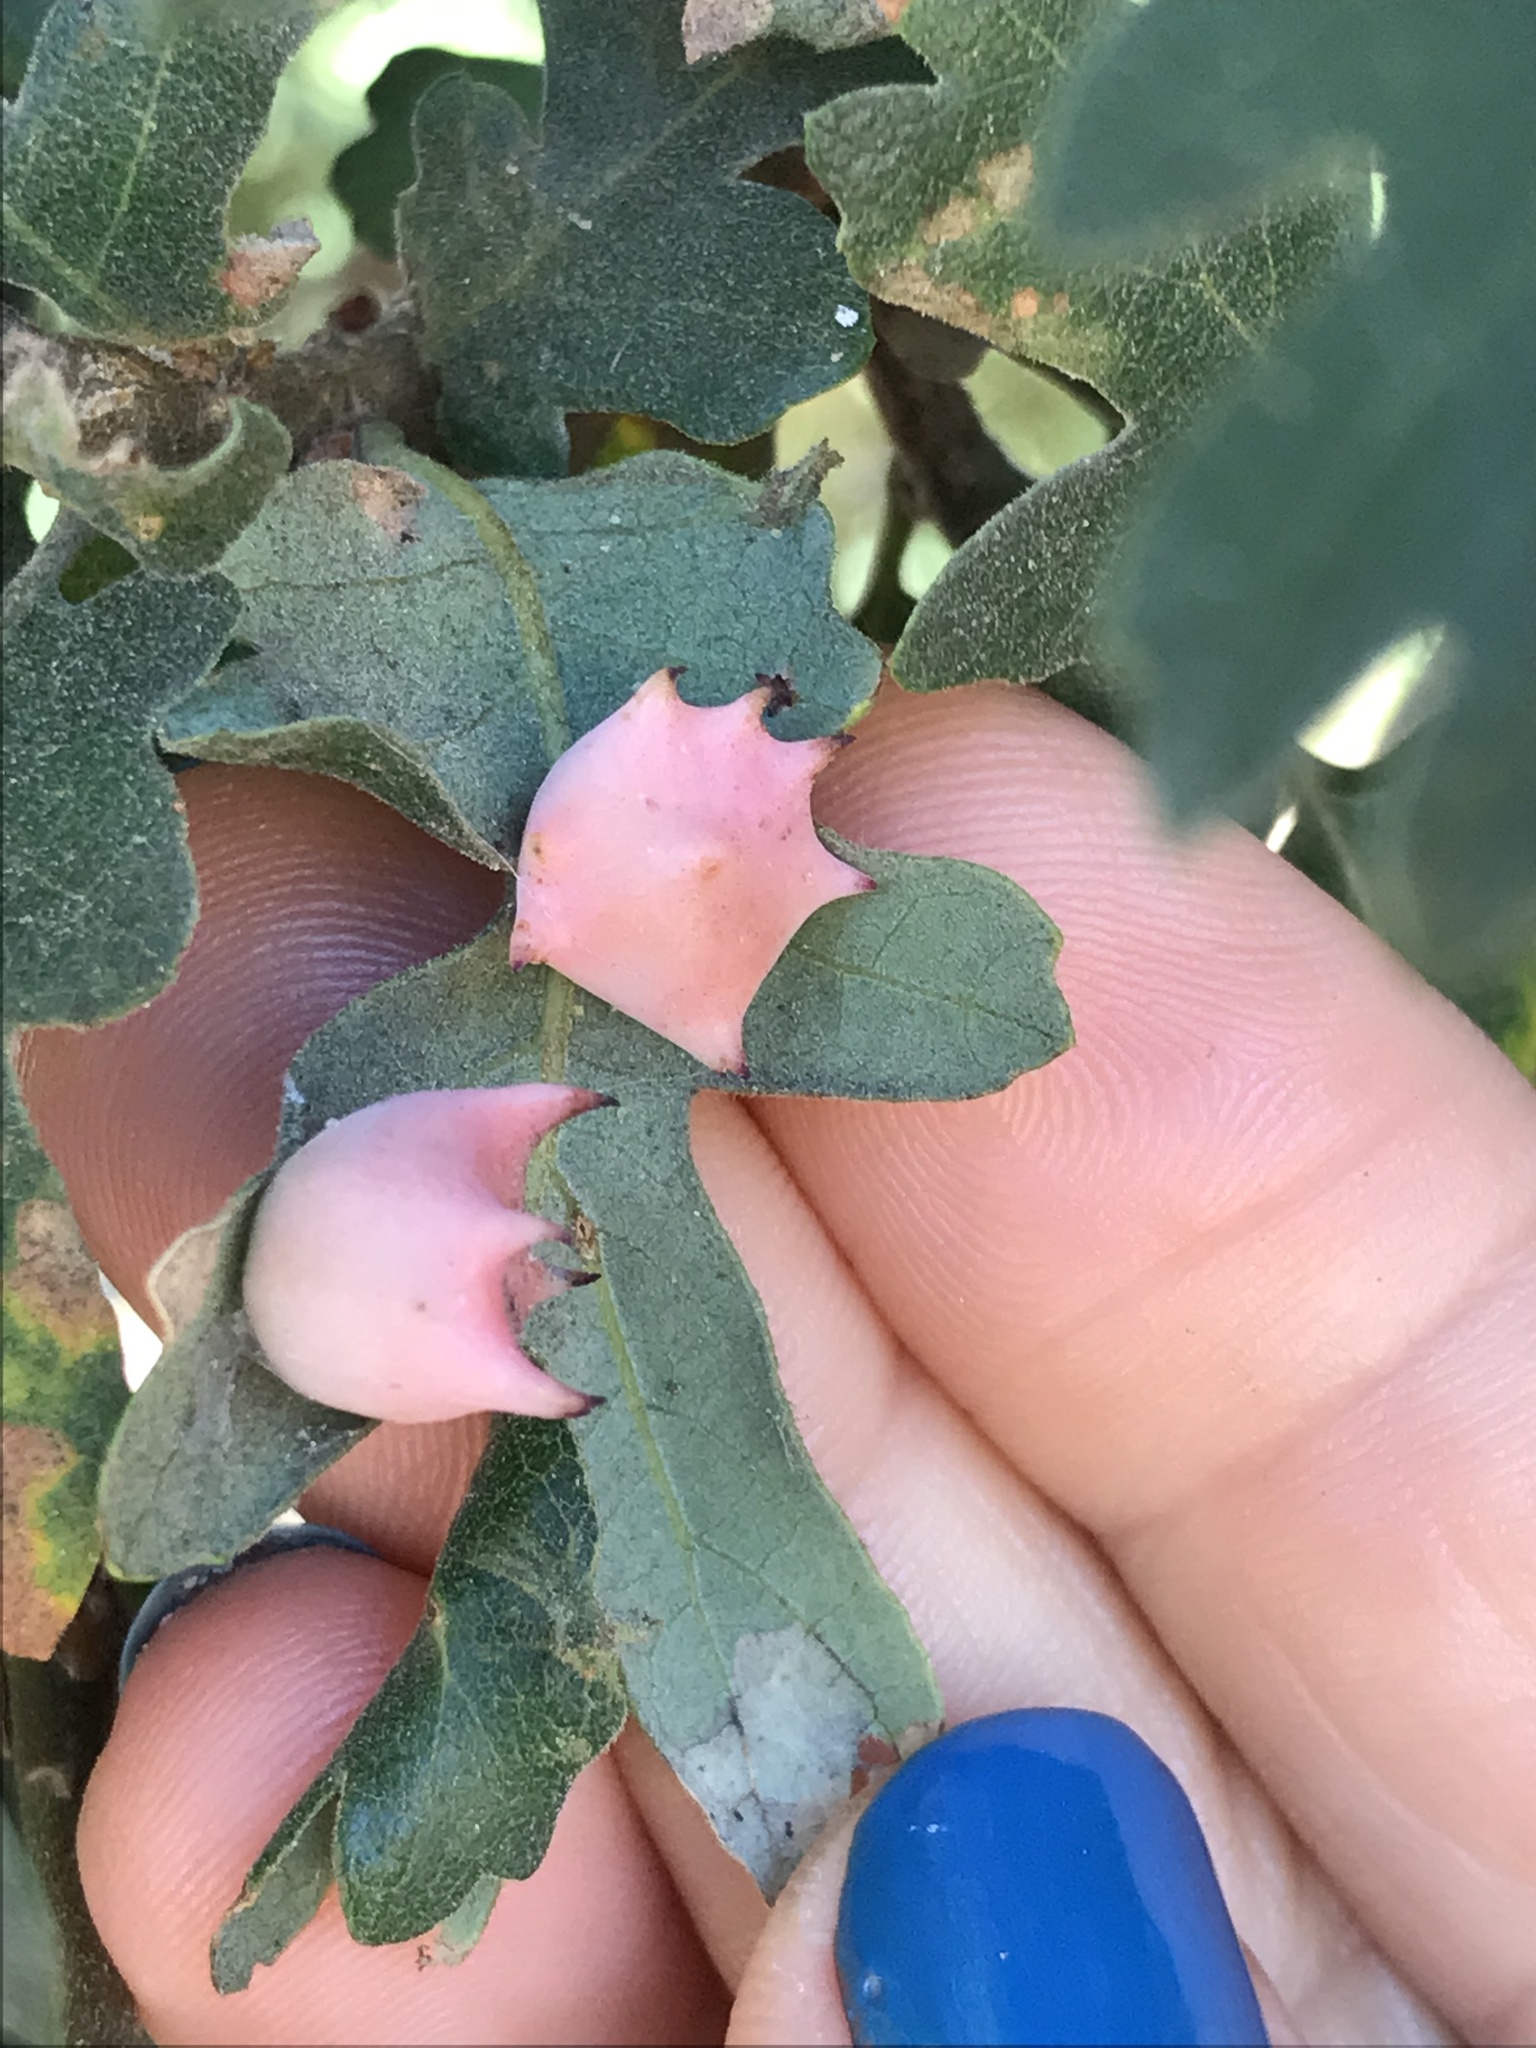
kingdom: Animalia
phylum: Arthropoda
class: Insecta
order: Hymenoptera
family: Cynipidae
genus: Cynips
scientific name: Cynips douglasi
